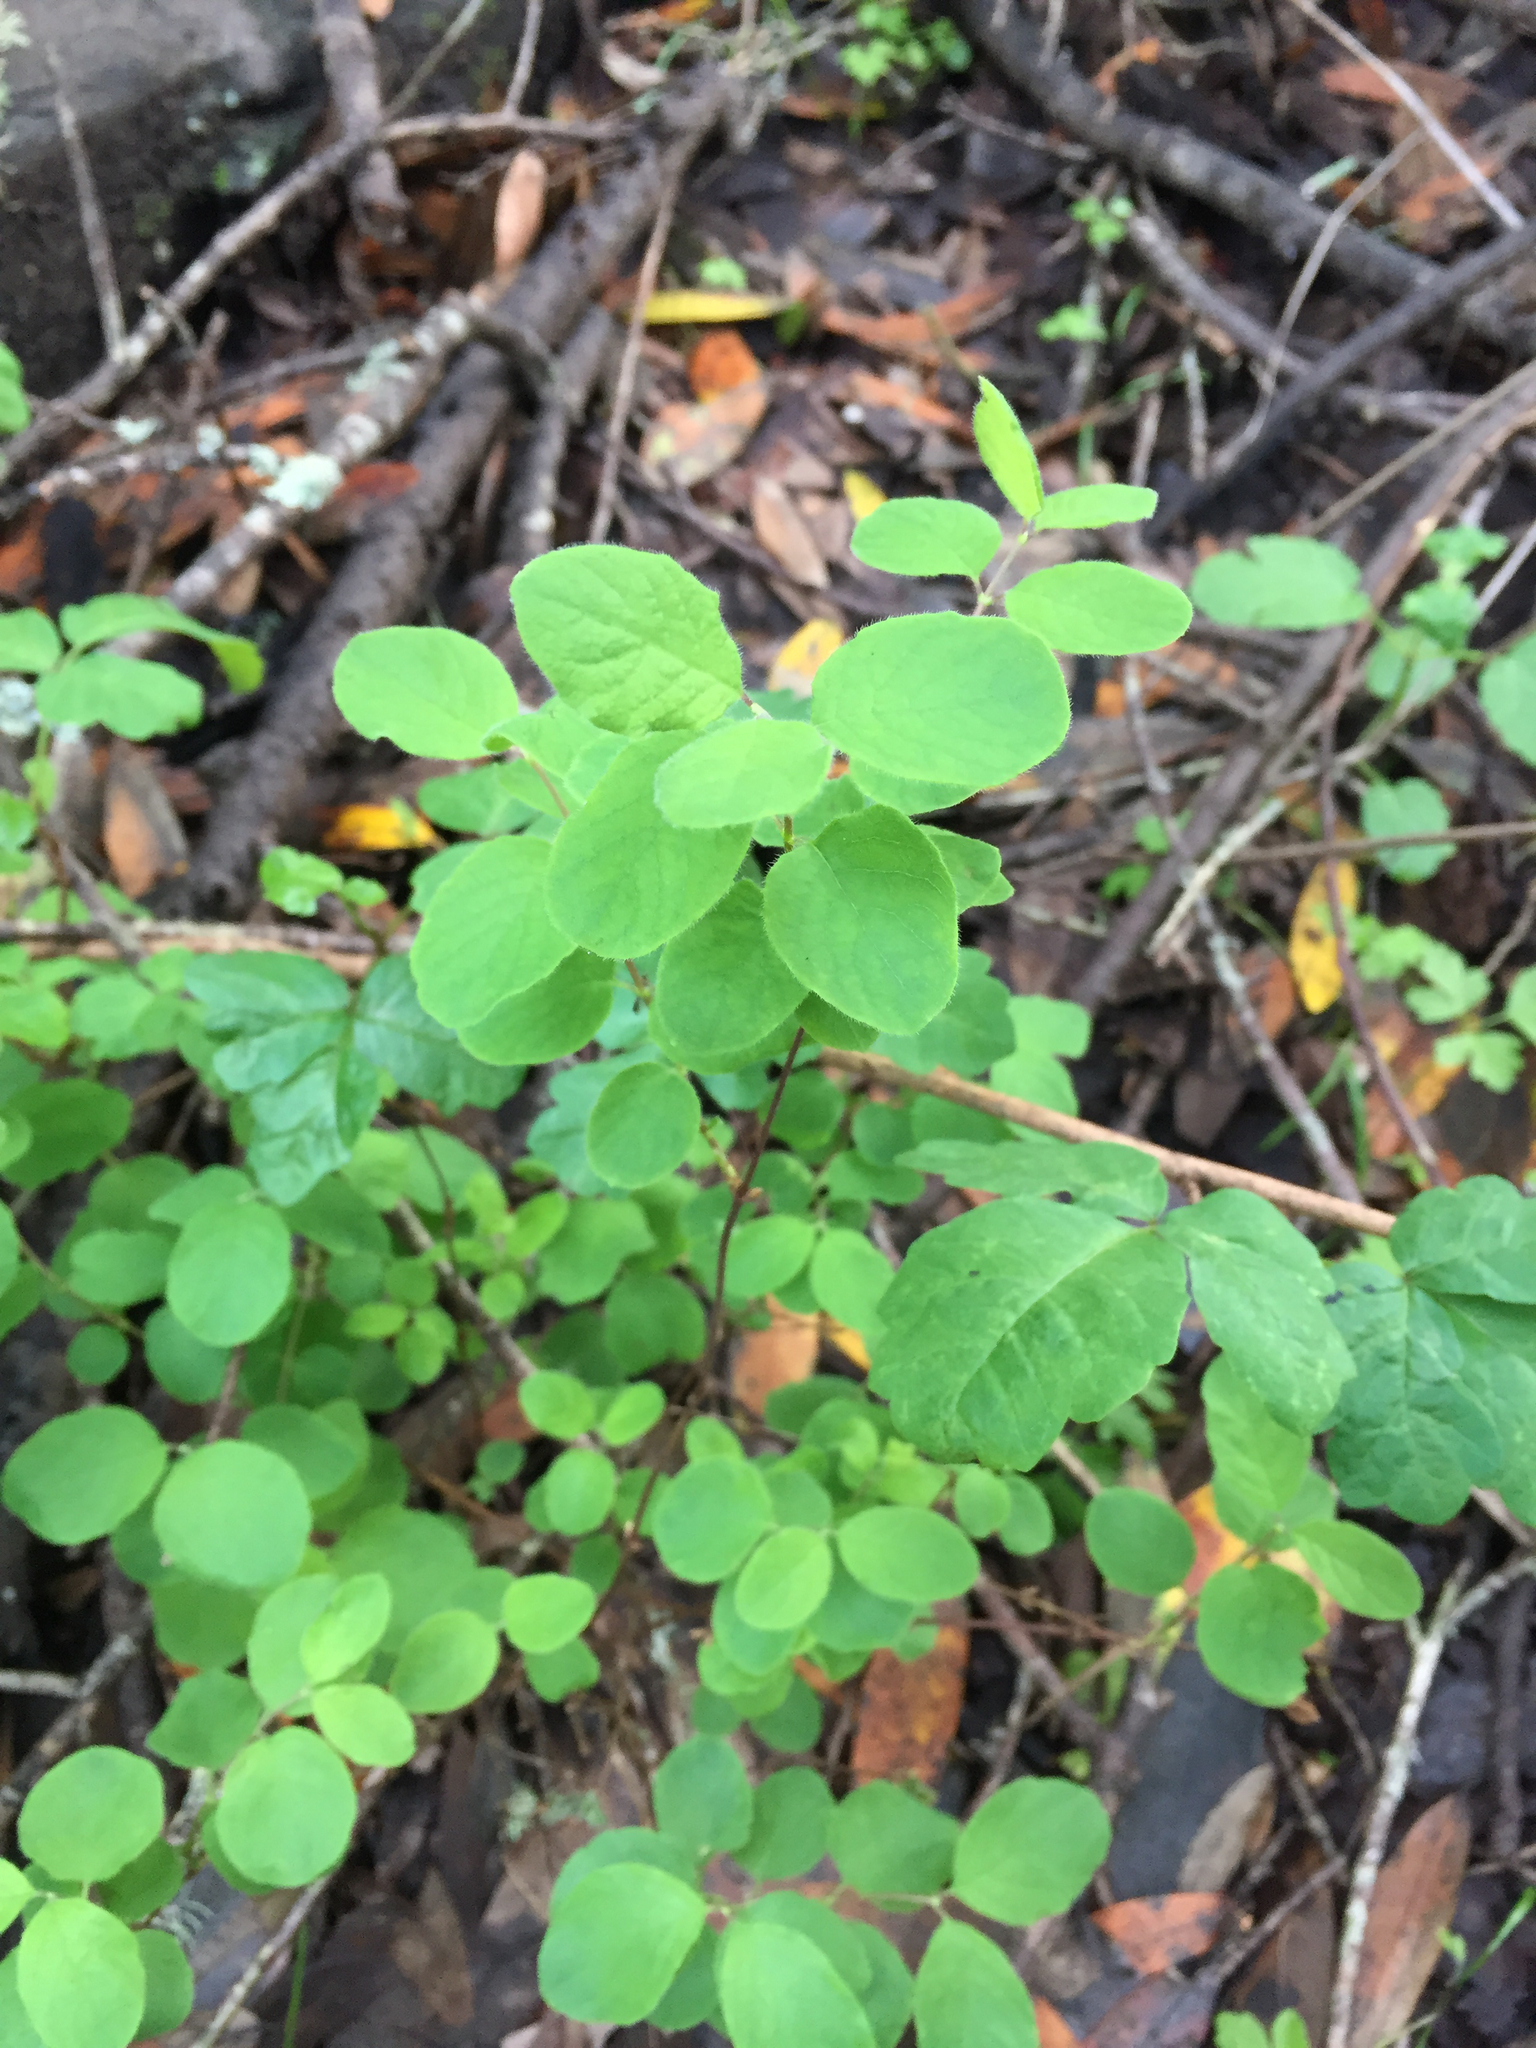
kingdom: Plantae
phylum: Tracheophyta
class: Magnoliopsida
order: Dipsacales
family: Caprifoliaceae
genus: Symphoricarpos
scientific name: Symphoricarpos albus
